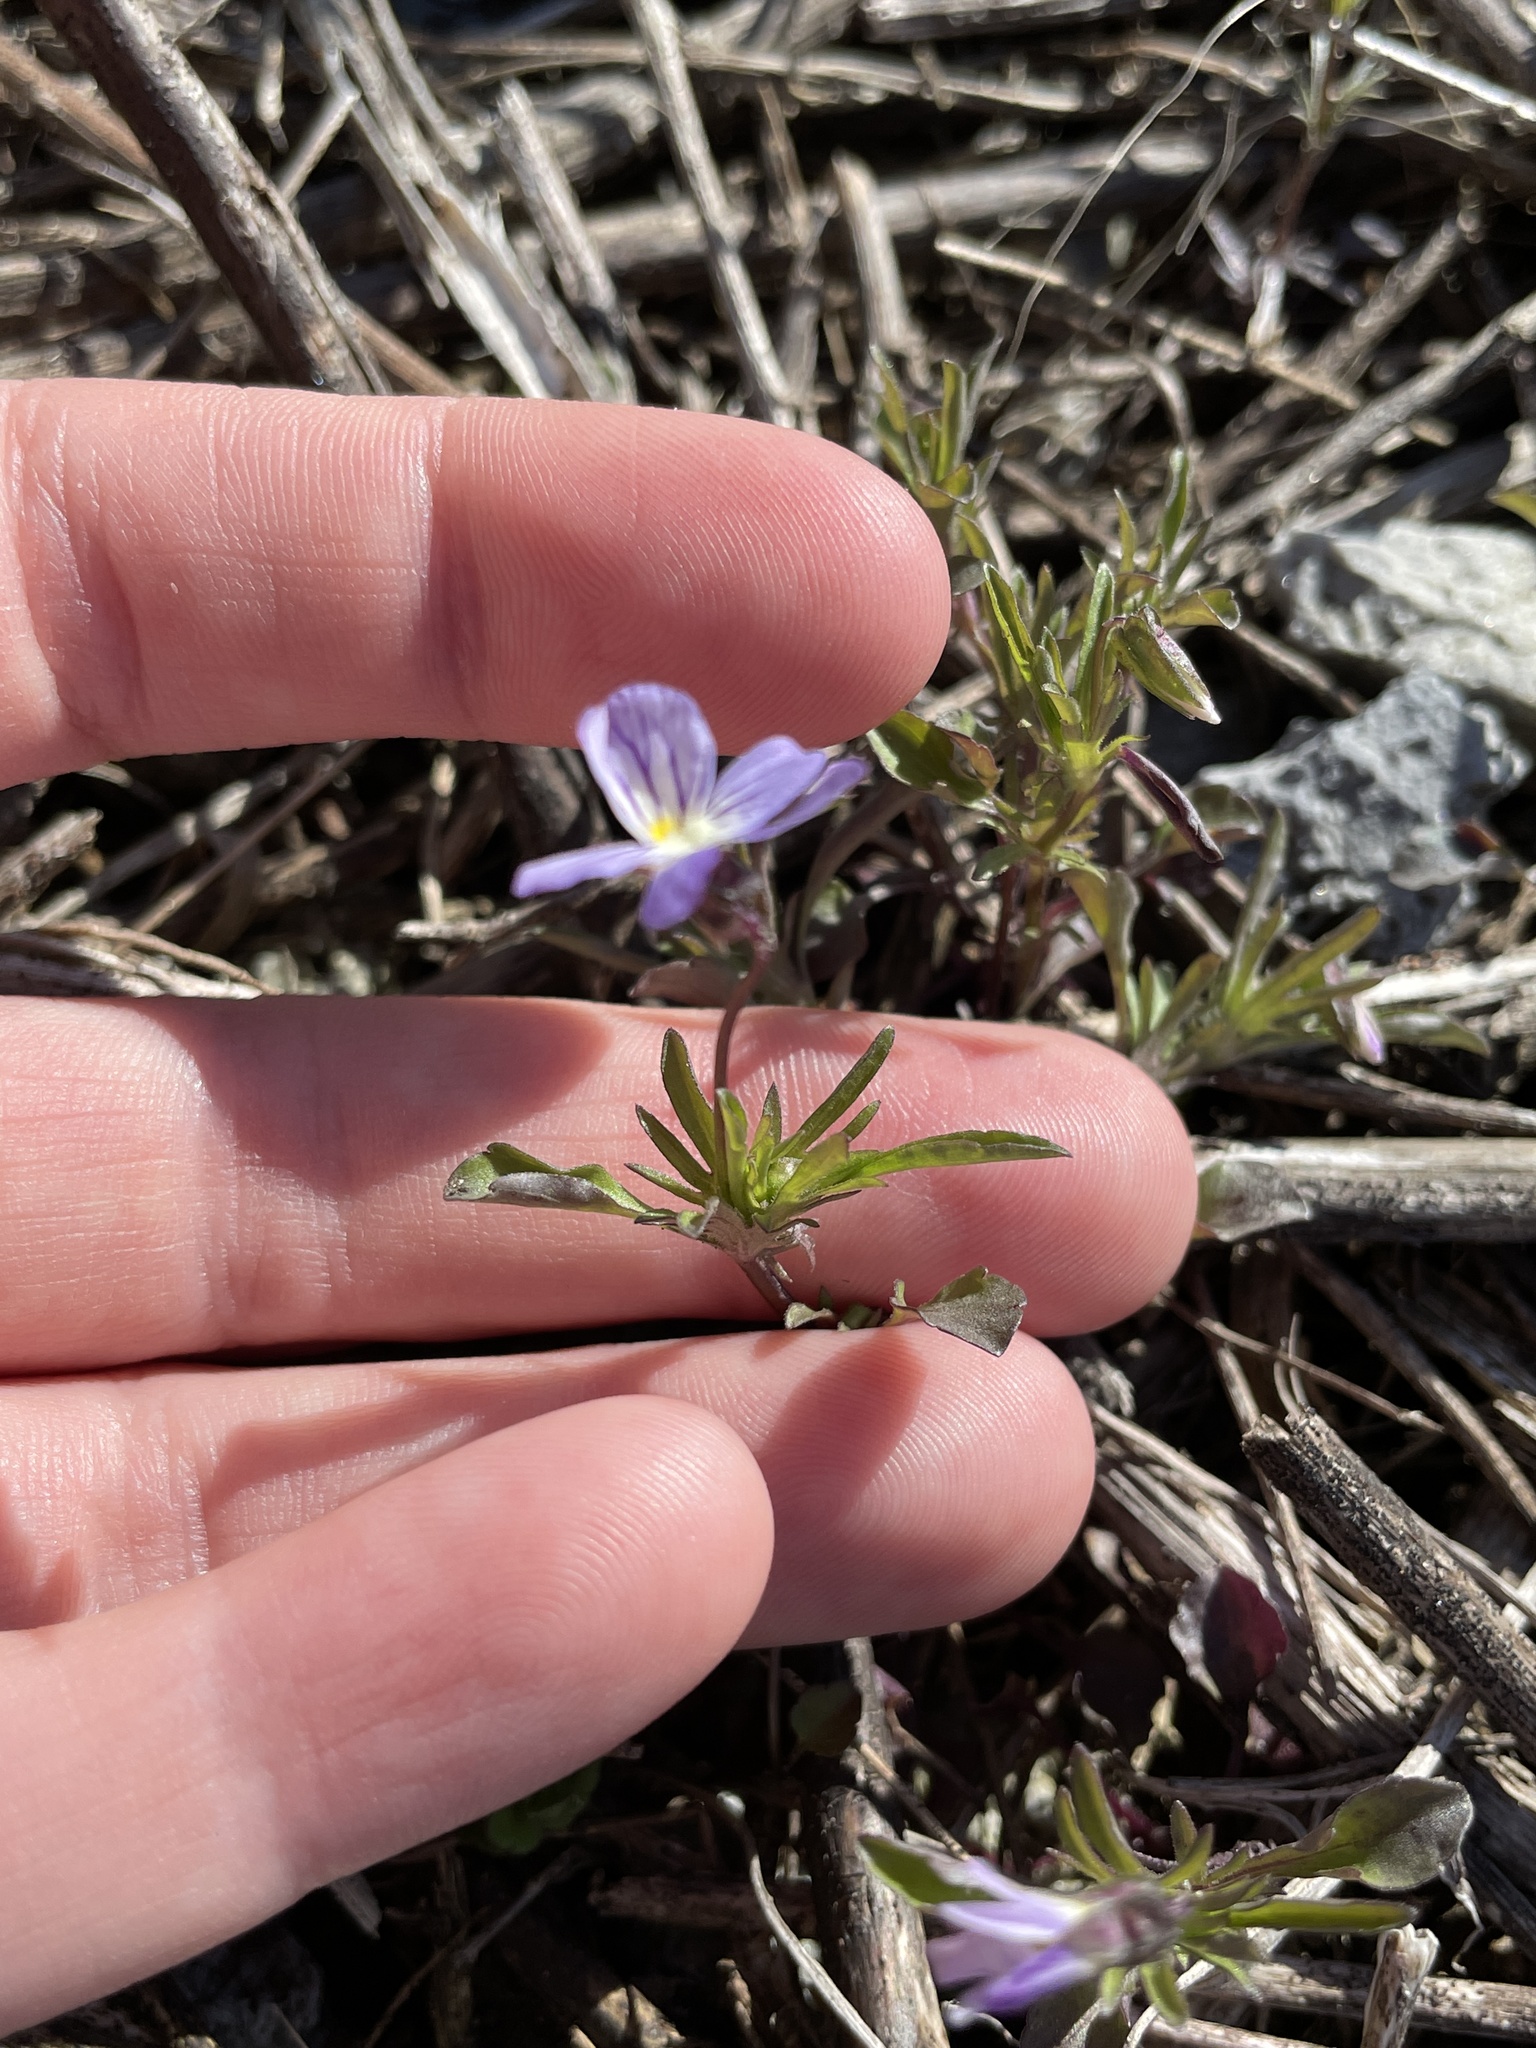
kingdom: Plantae
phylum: Tracheophyta
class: Magnoliopsida
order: Malpighiales
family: Violaceae
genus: Viola
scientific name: Viola rafinesquei
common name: American field pansy
